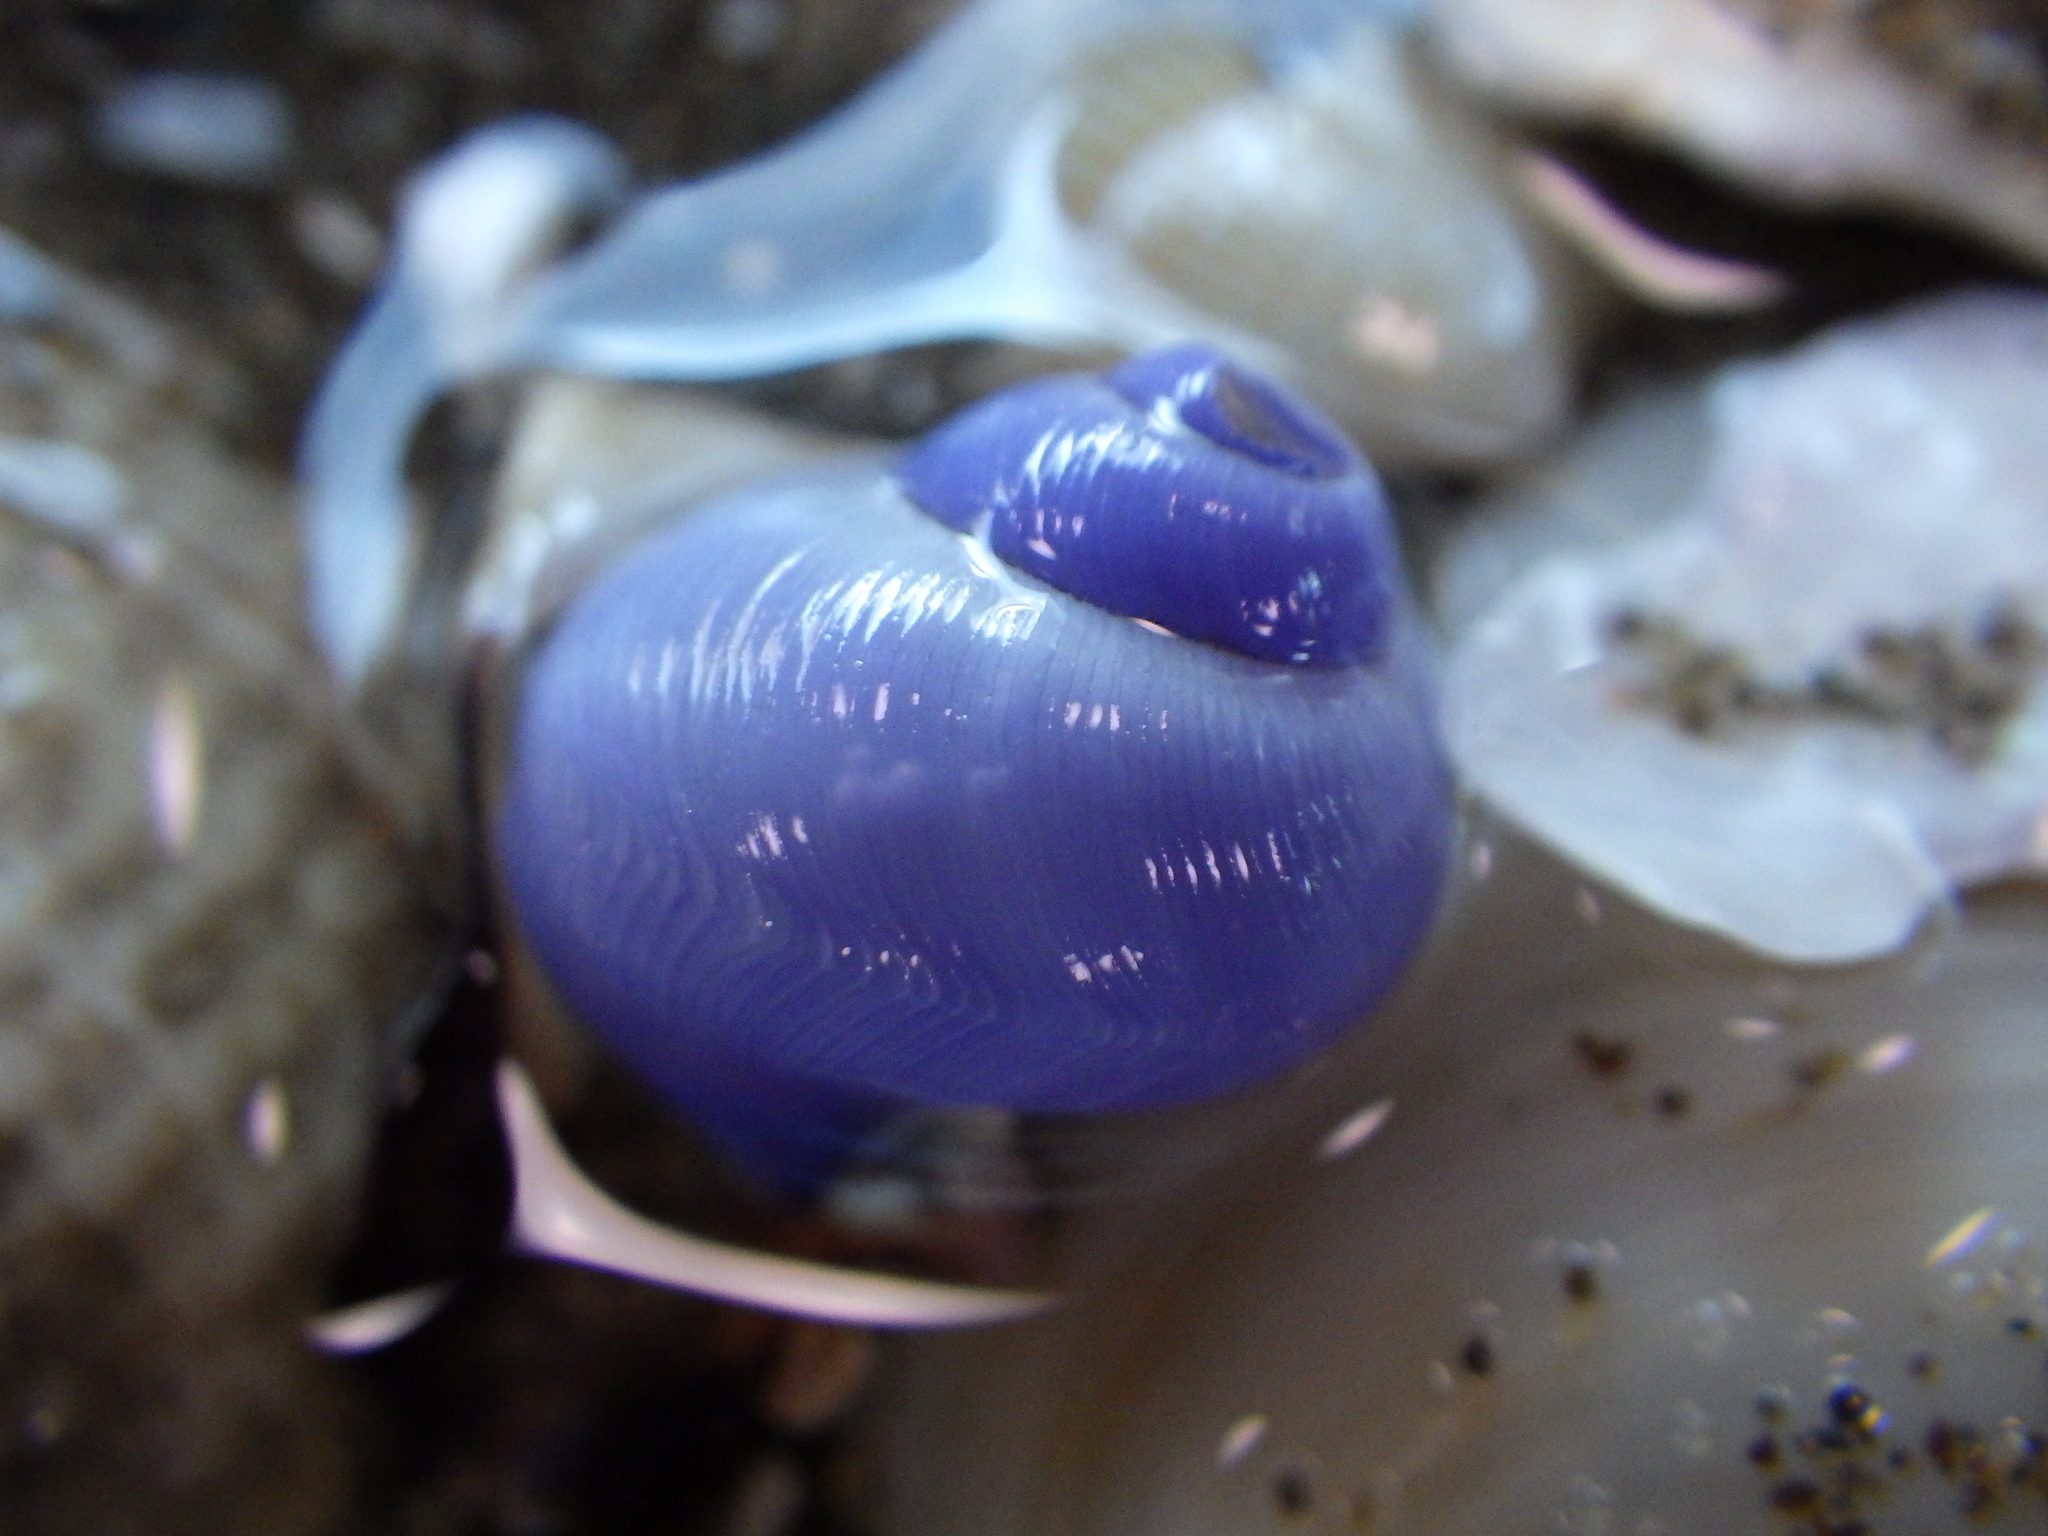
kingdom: Animalia
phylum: Mollusca
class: Gastropoda
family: Epitoniidae
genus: Janthina
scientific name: Janthina exigua
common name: Dwarf janthina
